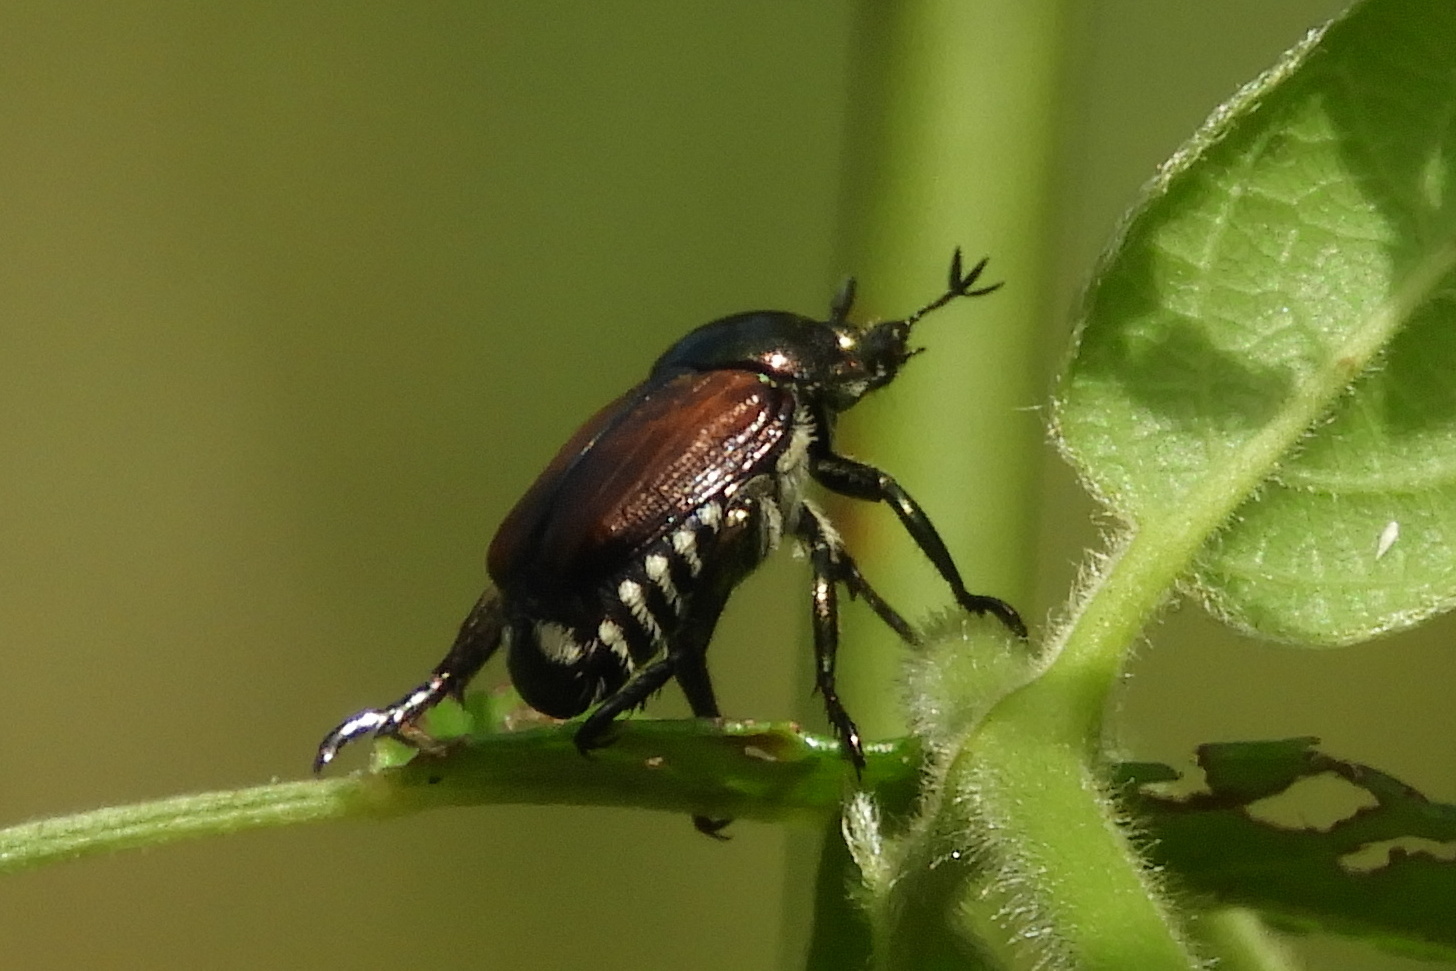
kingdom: Animalia
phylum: Arthropoda
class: Insecta
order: Coleoptera
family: Scarabaeidae
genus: Popillia
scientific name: Popillia japonica
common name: Japanese beetle
